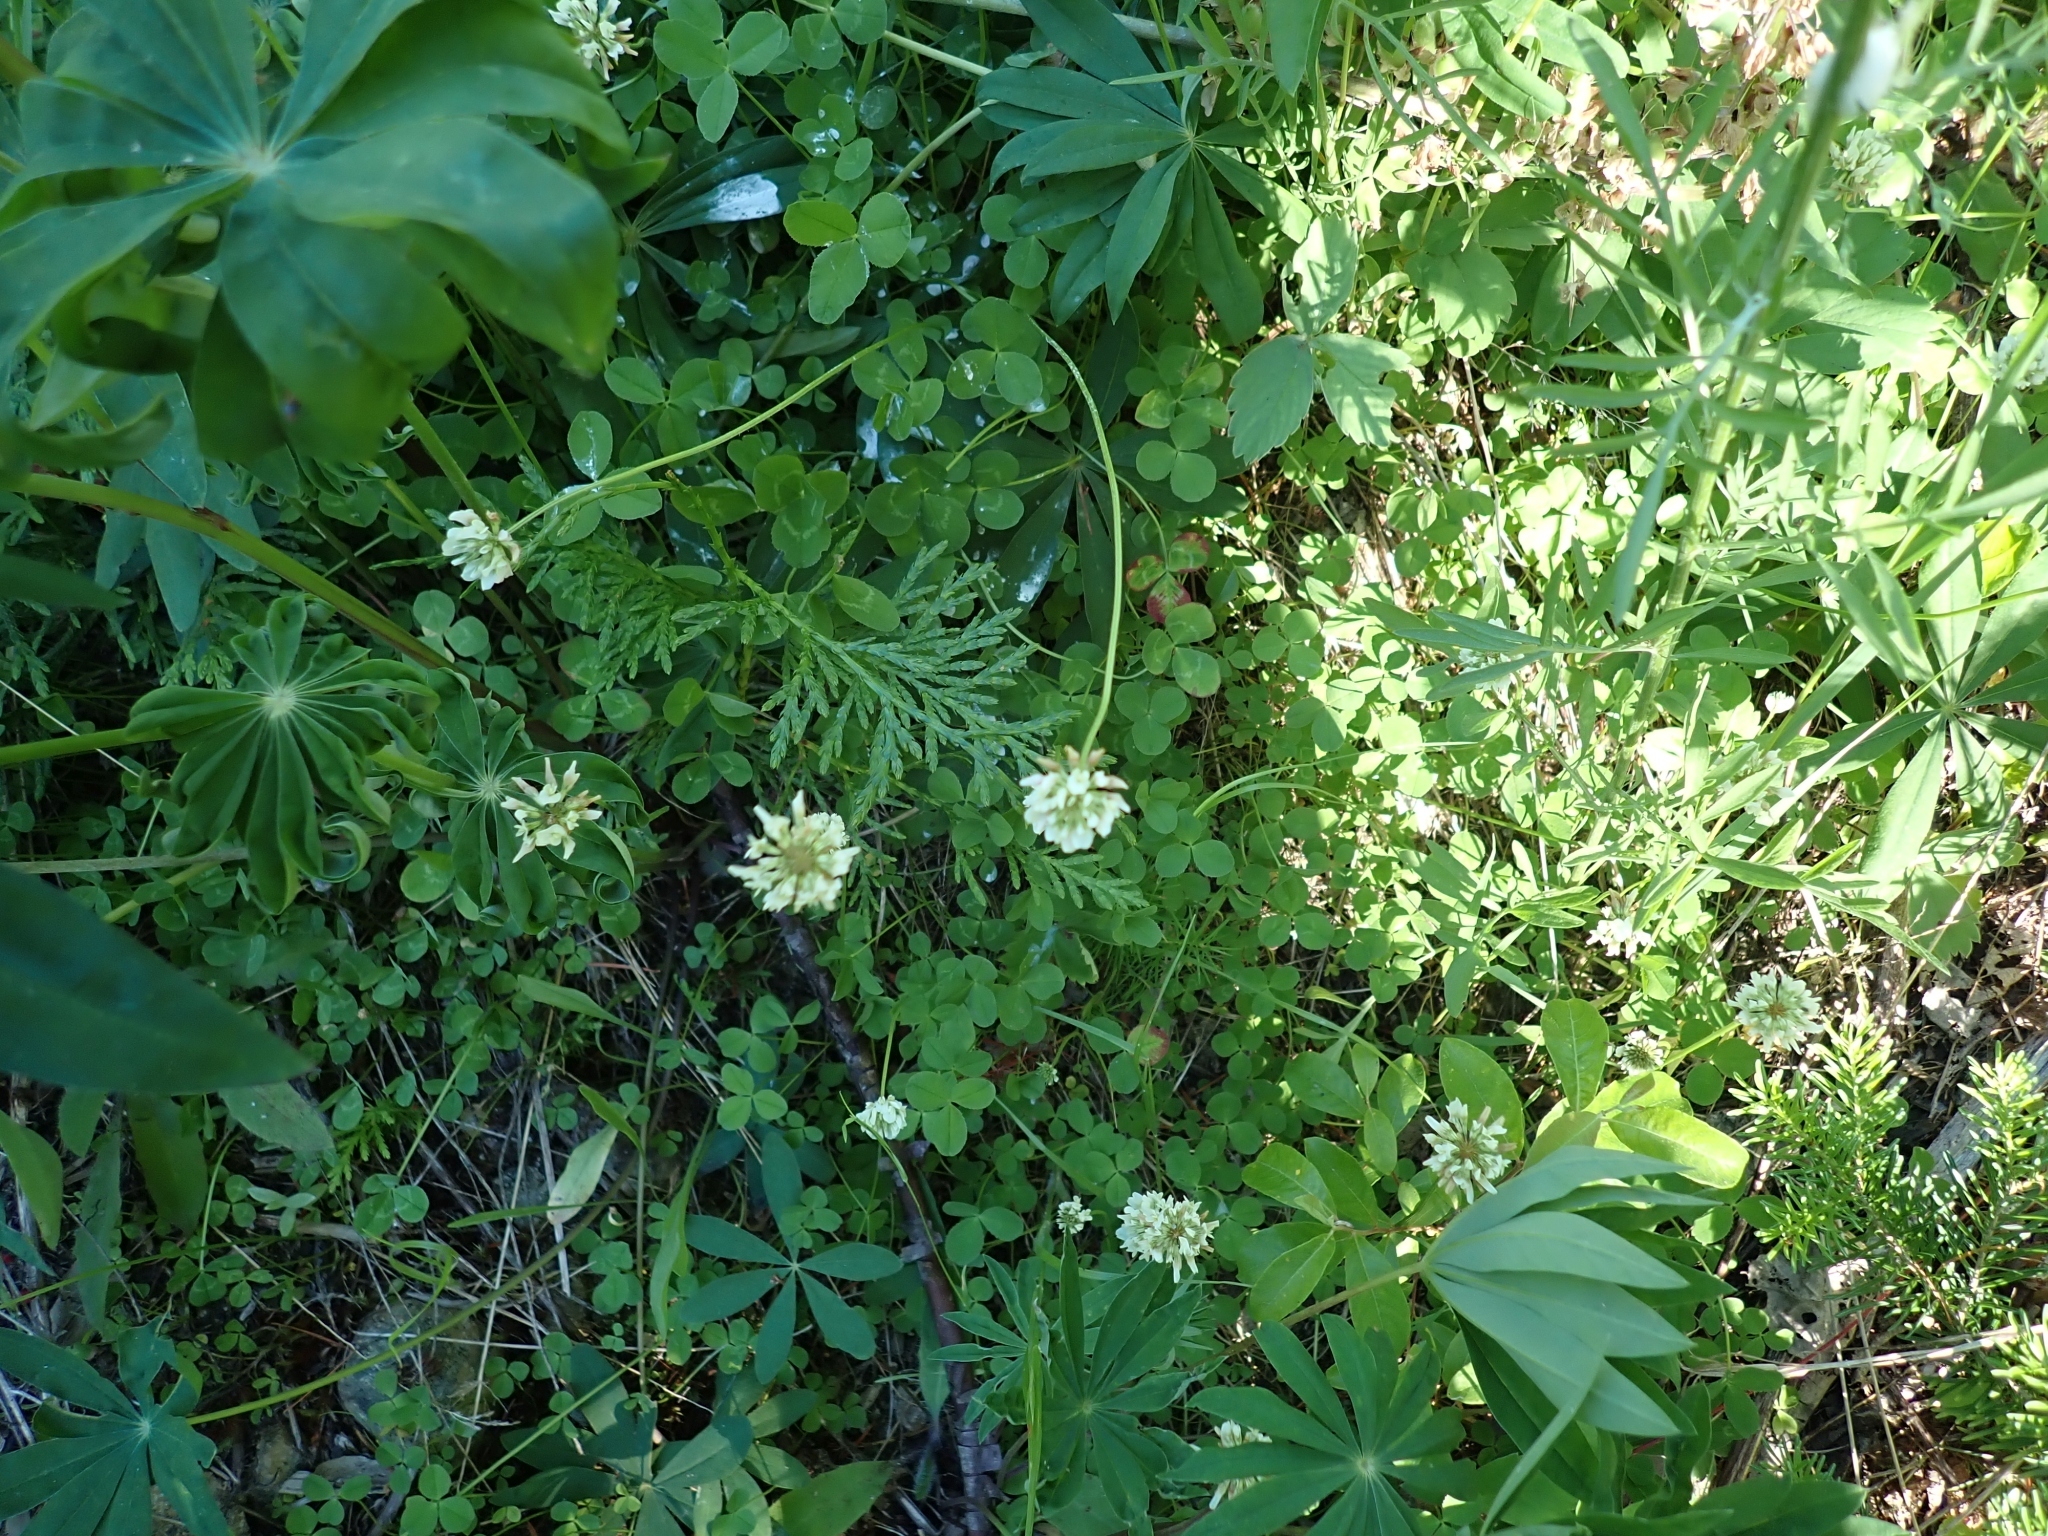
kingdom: Plantae
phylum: Tracheophyta
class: Magnoliopsida
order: Fabales
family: Fabaceae
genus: Trifolium
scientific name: Trifolium repens
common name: White clover
